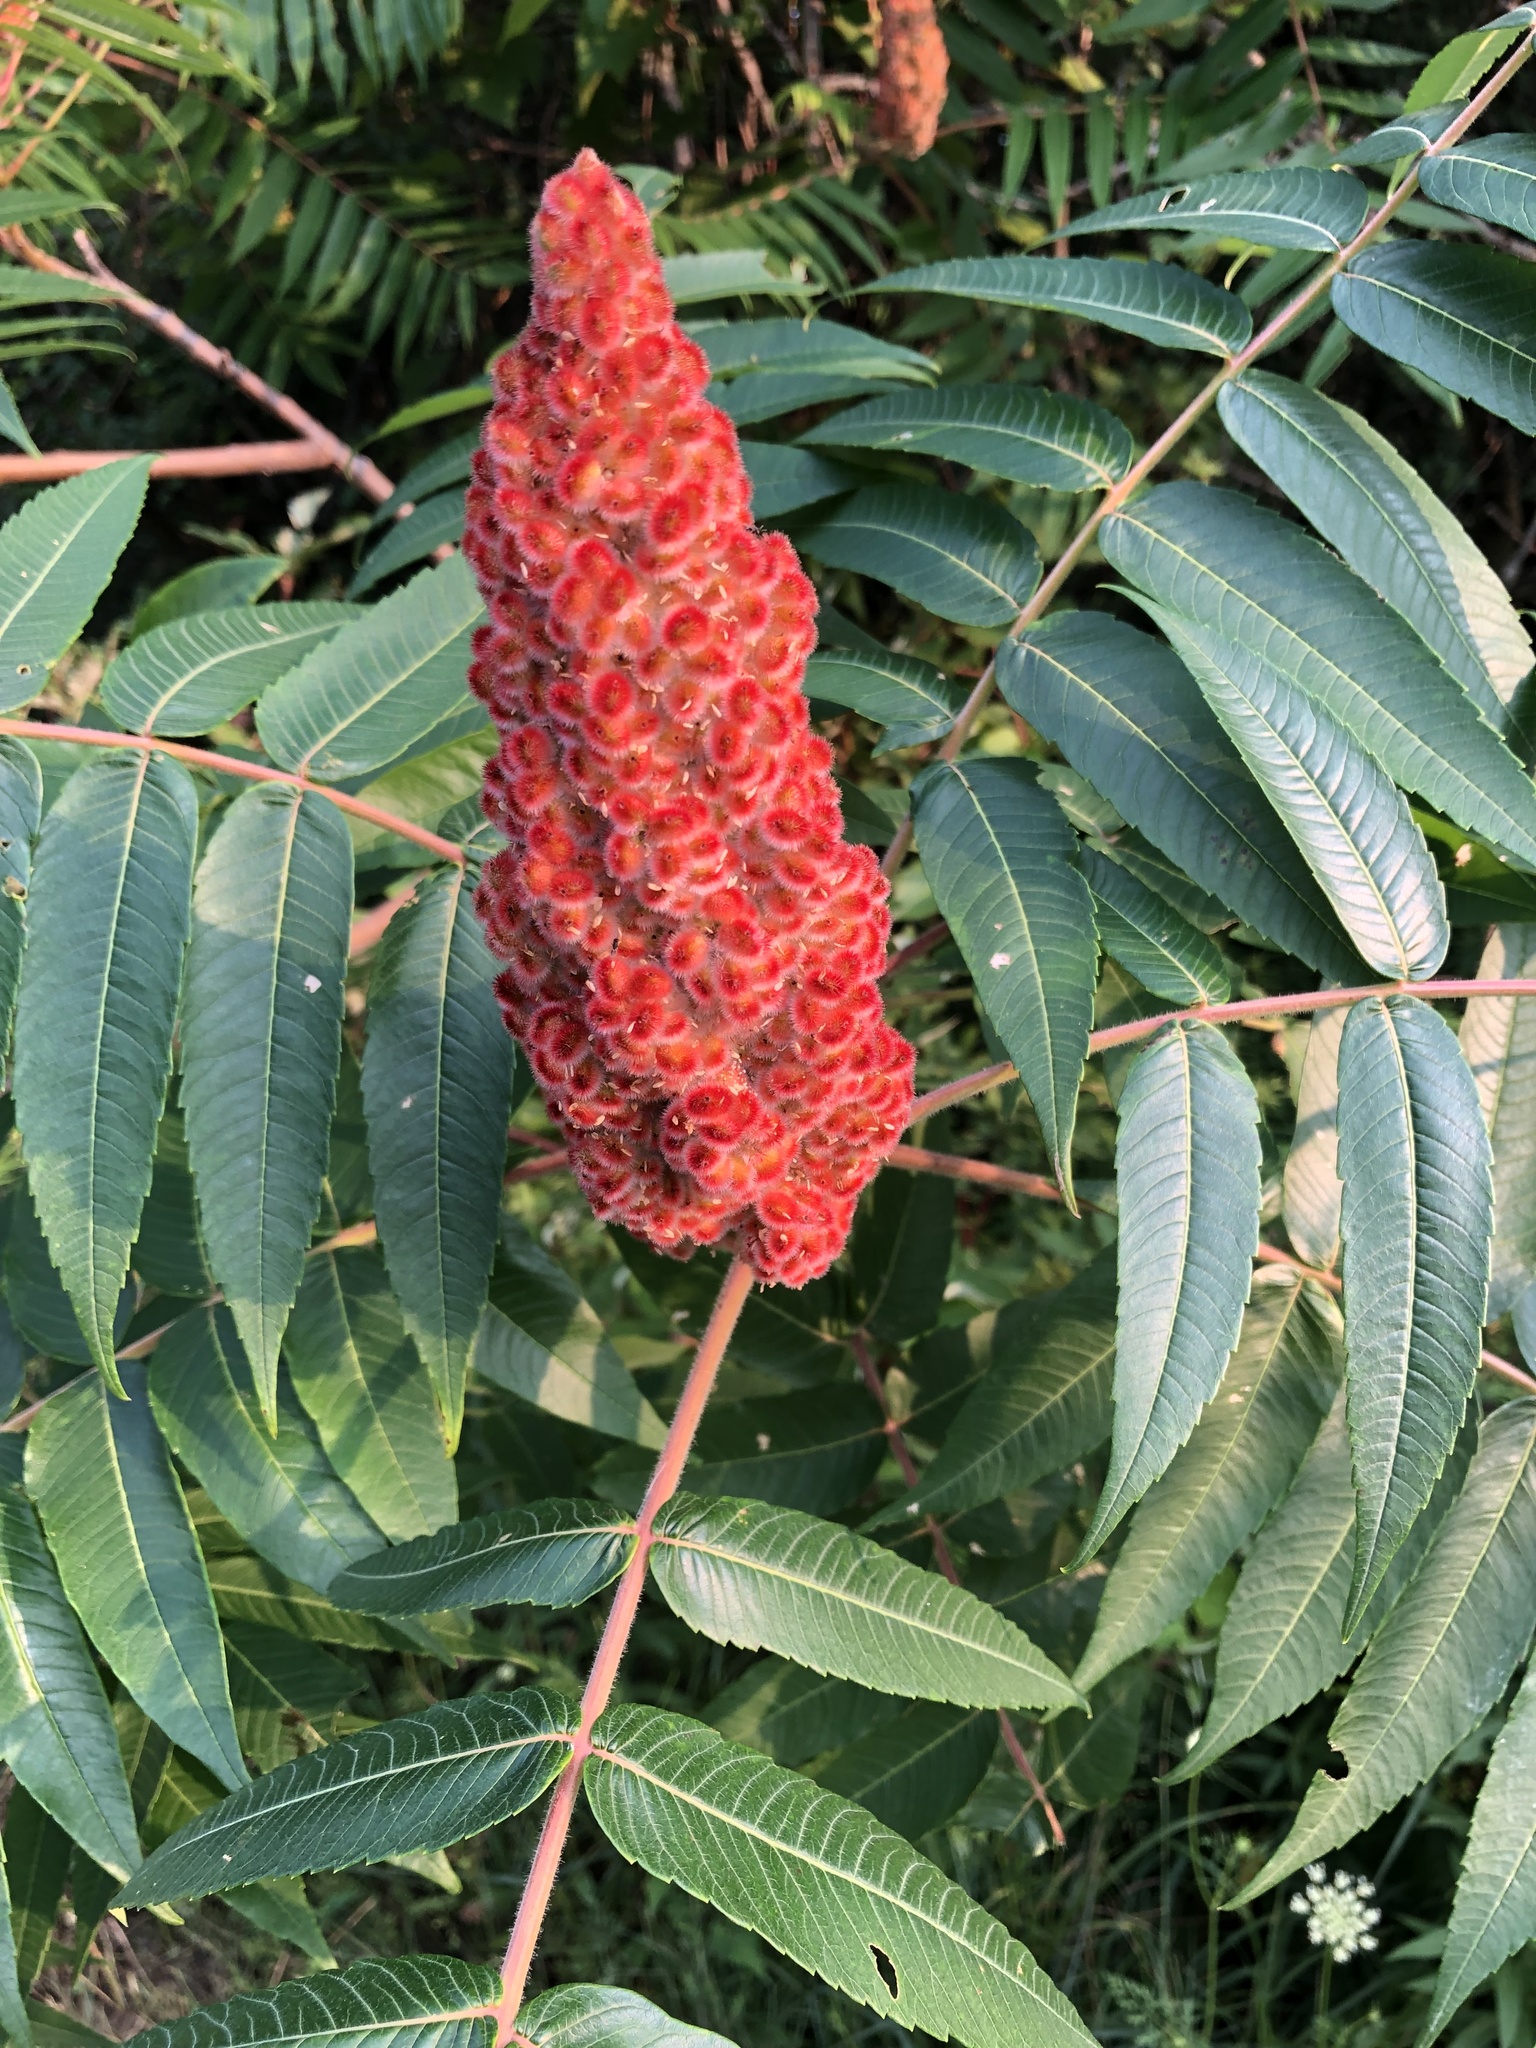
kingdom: Plantae
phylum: Tracheophyta
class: Magnoliopsida
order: Sapindales
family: Anacardiaceae
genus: Rhus
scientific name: Rhus typhina
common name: Staghorn sumac
